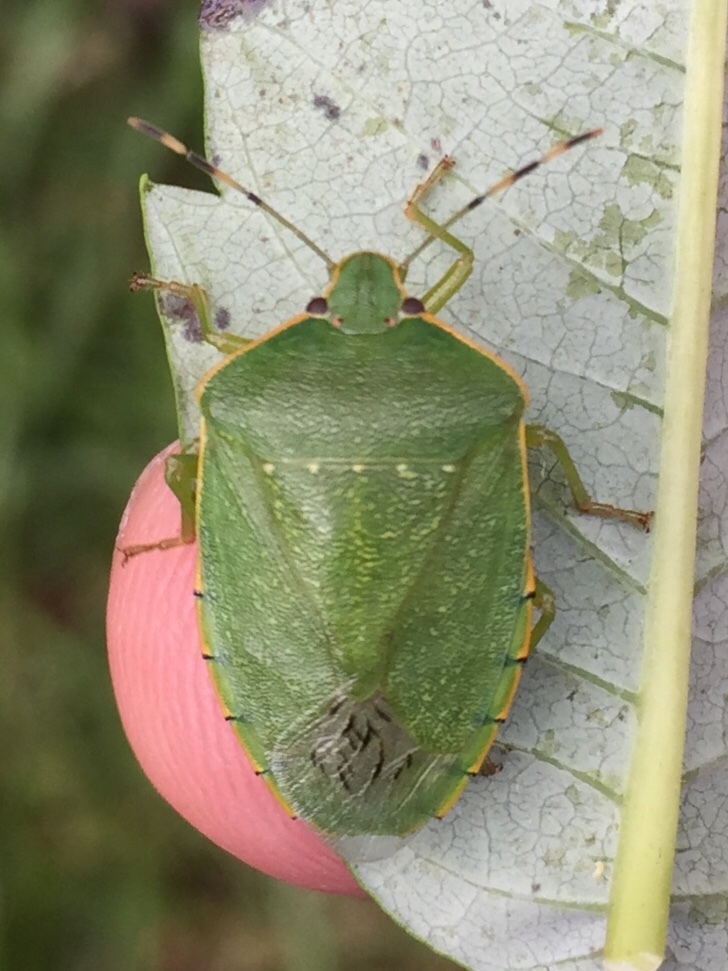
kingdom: Animalia
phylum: Arthropoda
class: Insecta
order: Hemiptera
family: Pentatomidae
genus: Chinavia
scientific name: Chinavia hilaris
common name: Green stink bug
